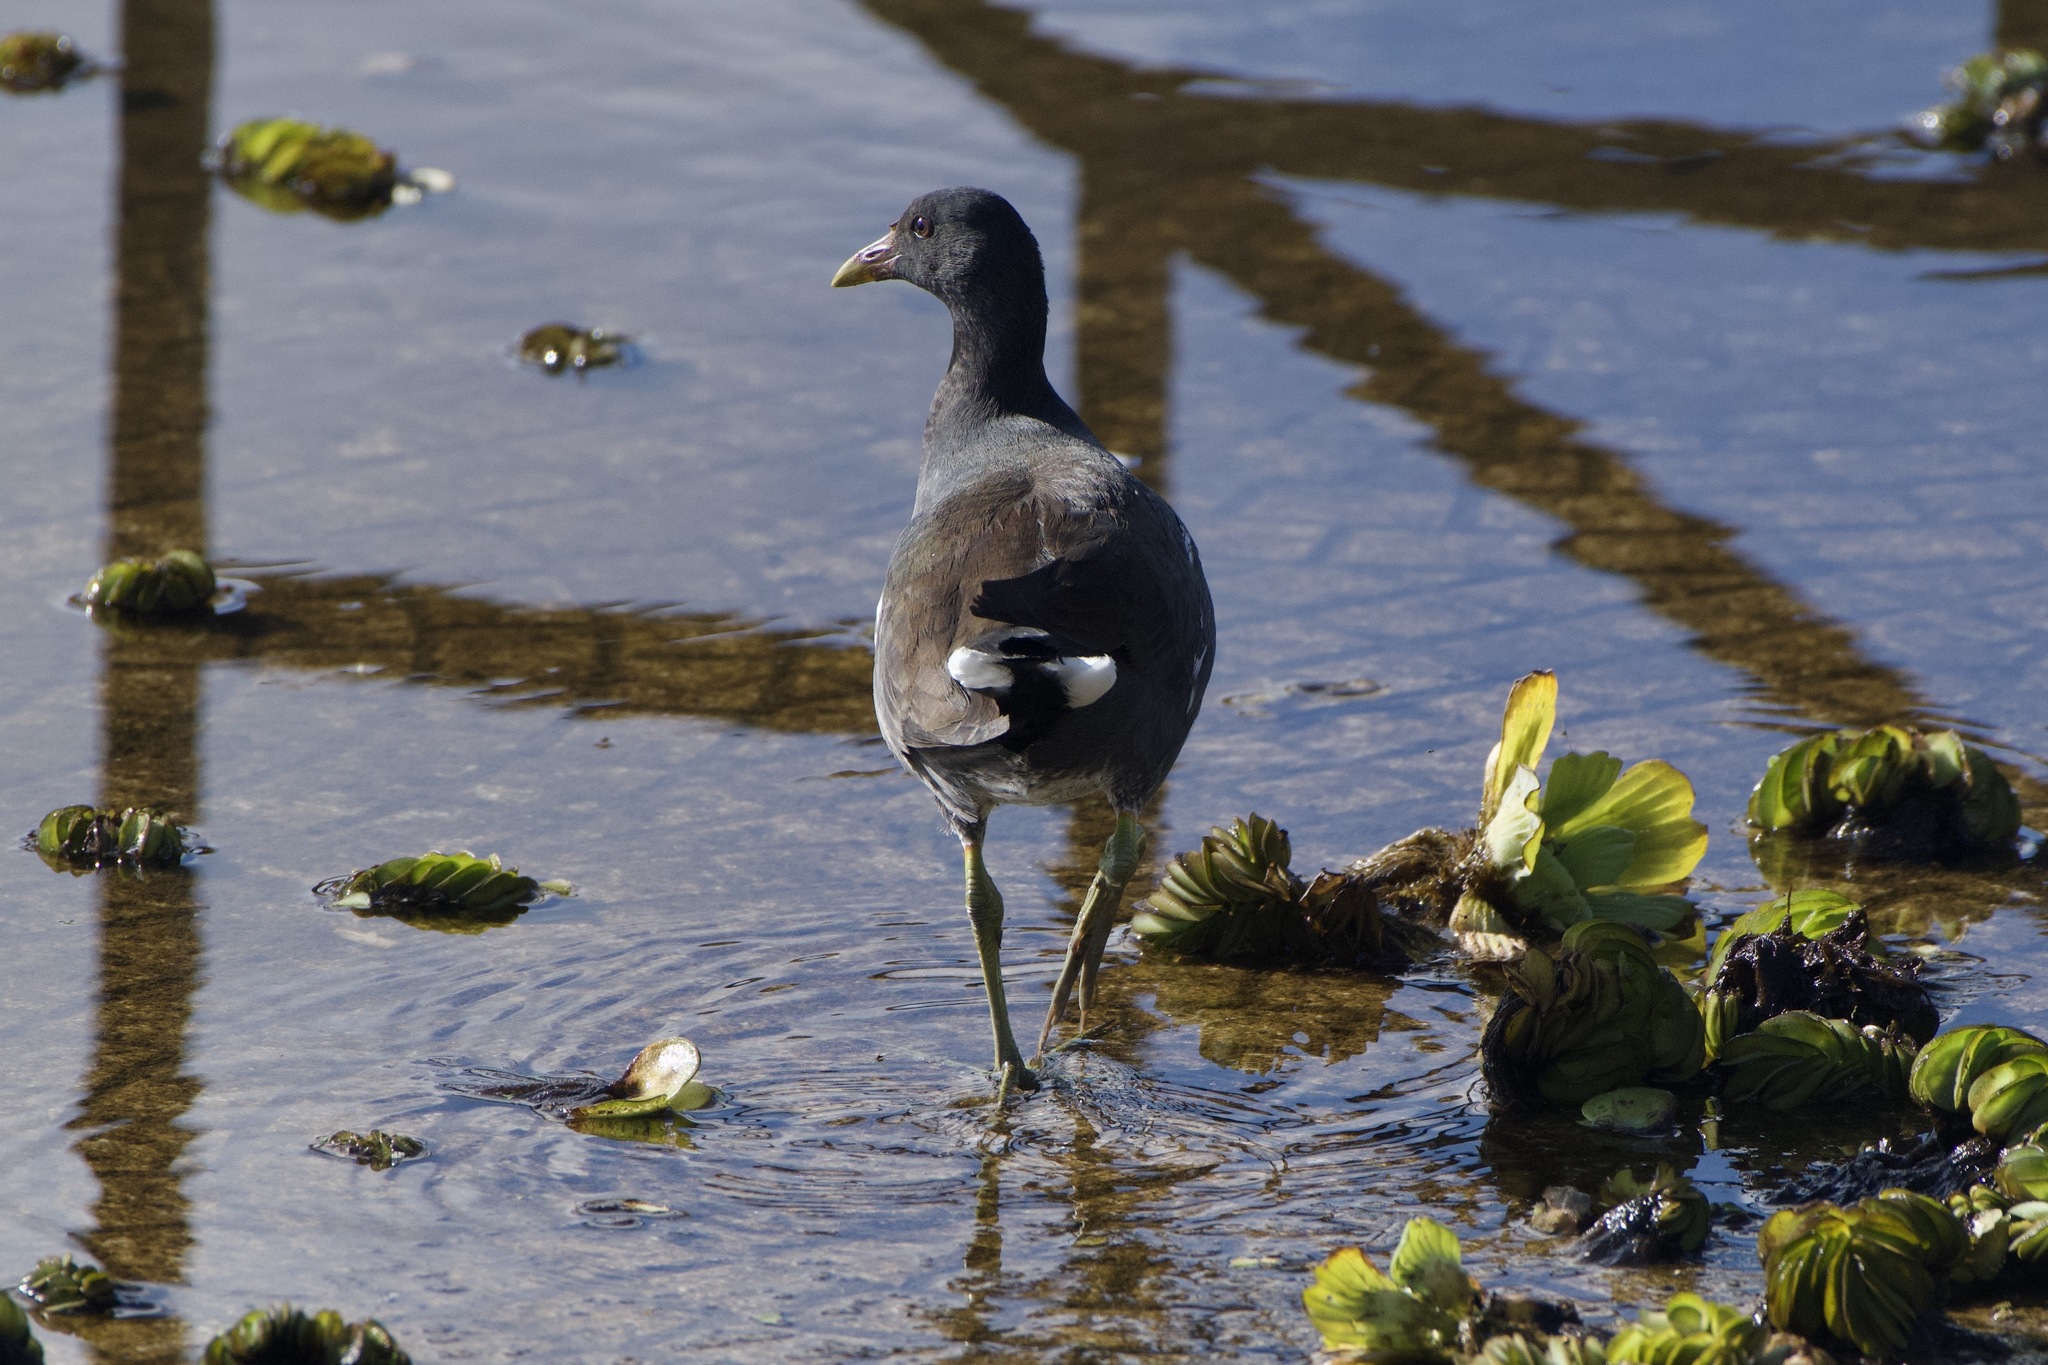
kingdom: Animalia
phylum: Chordata
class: Aves
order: Gruiformes
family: Rallidae
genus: Gallinula
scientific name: Gallinula chloropus
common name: Common moorhen
